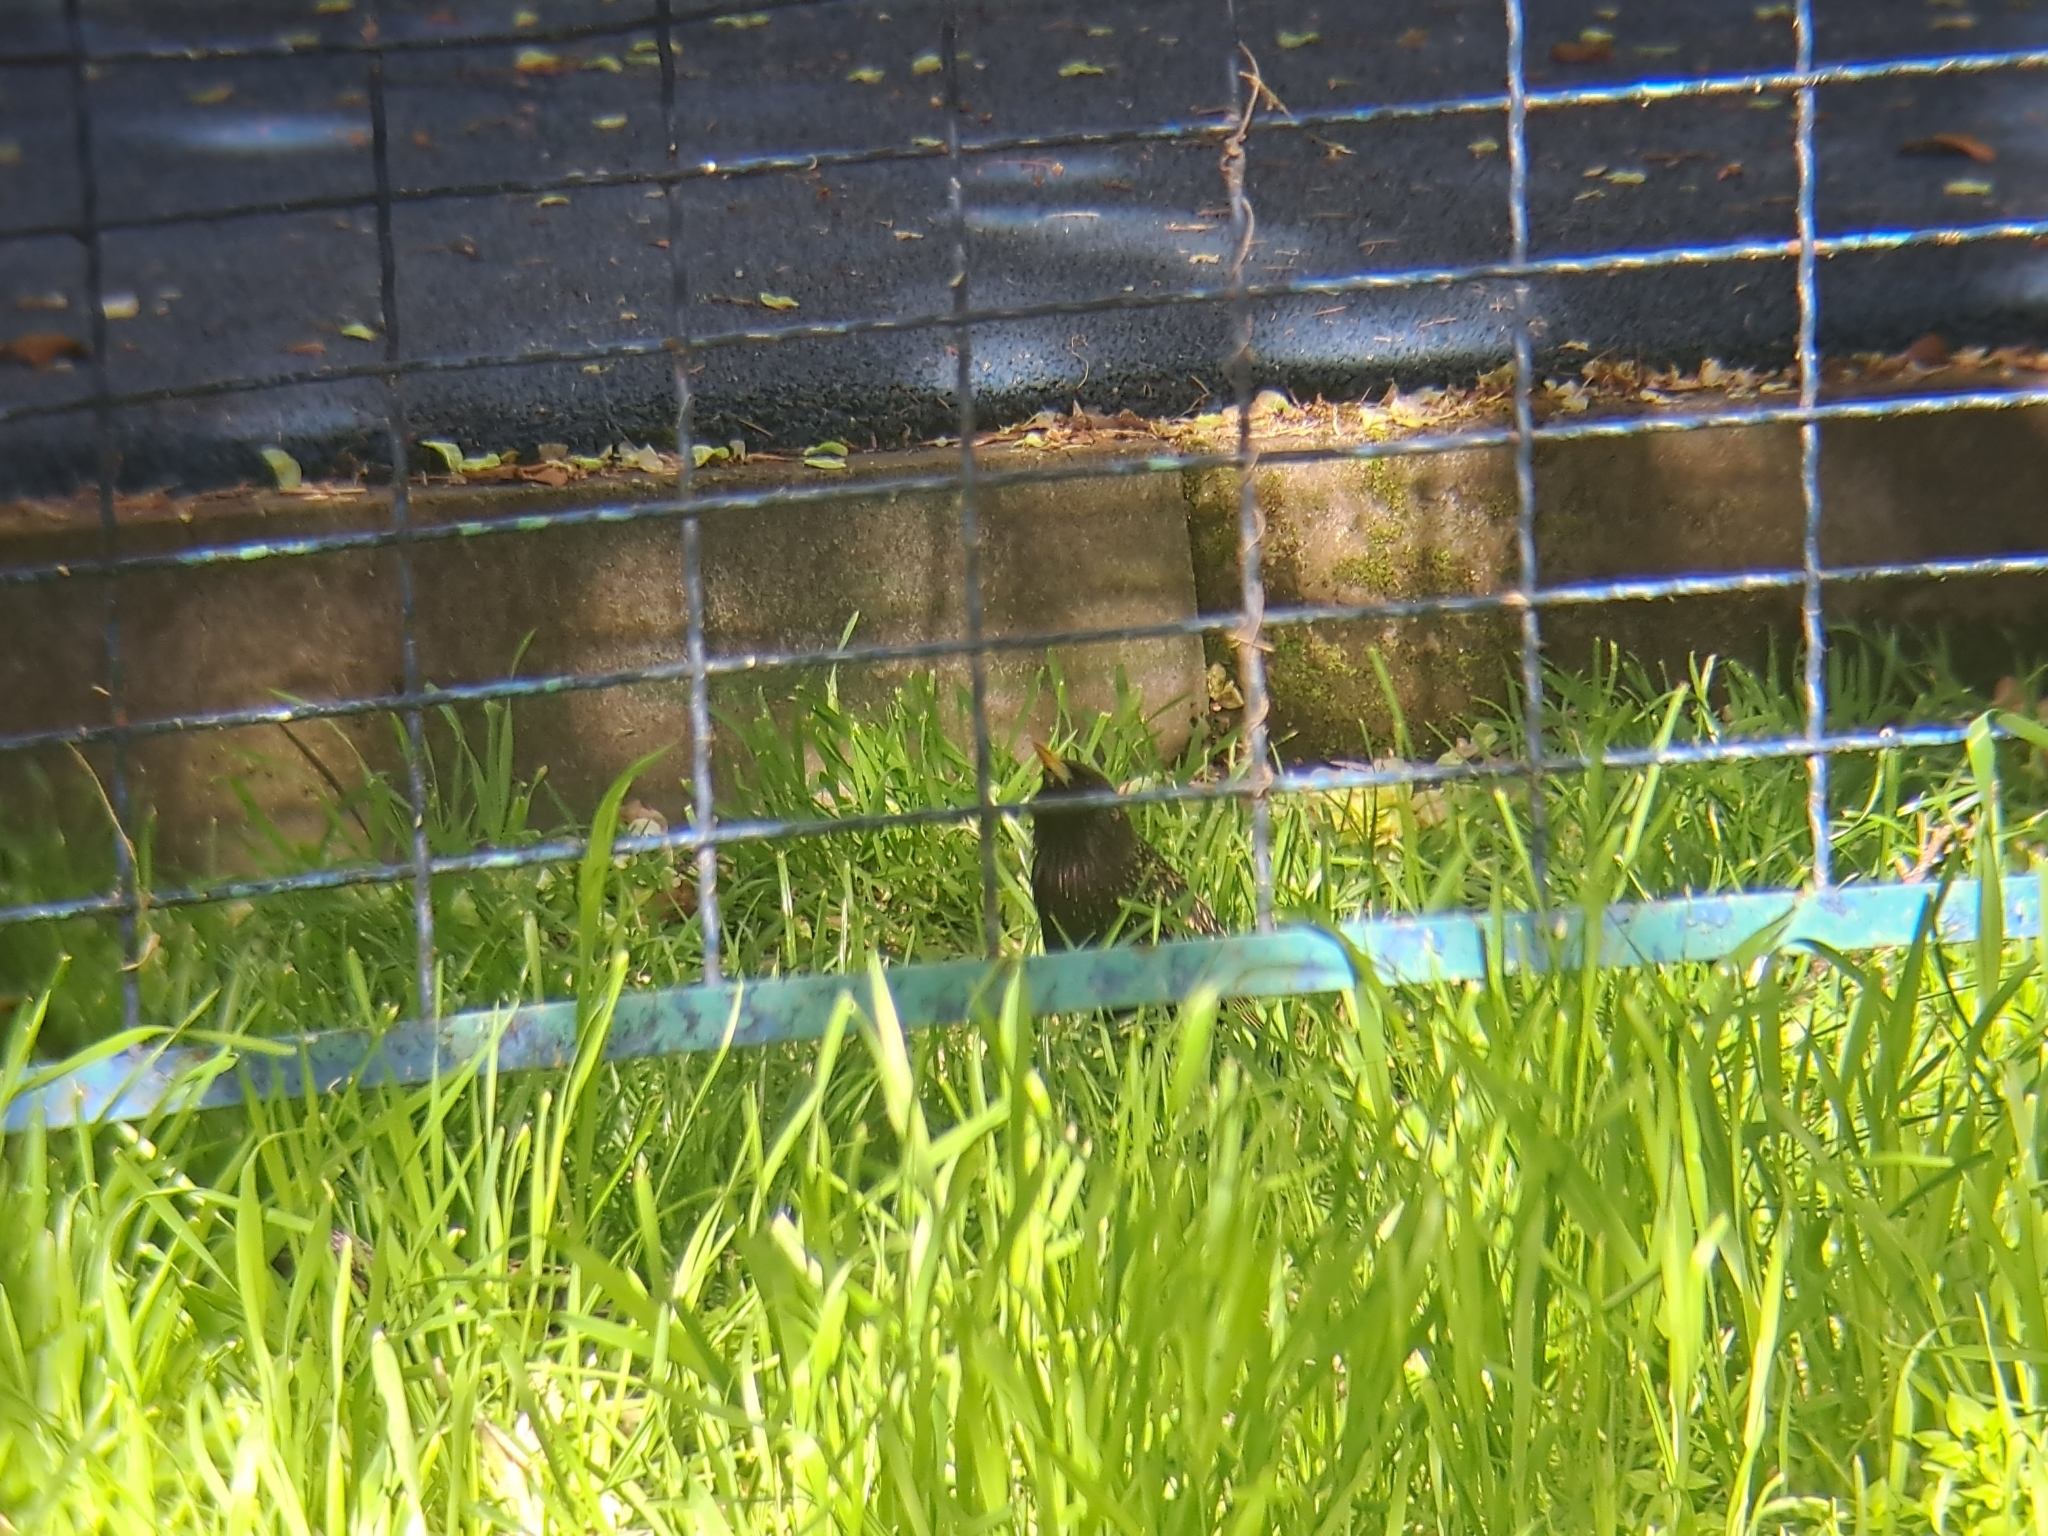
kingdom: Animalia
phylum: Chordata
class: Aves
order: Passeriformes
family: Sturnidae
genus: Sturnus
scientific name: Sturnus vulgaris
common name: Common starling
